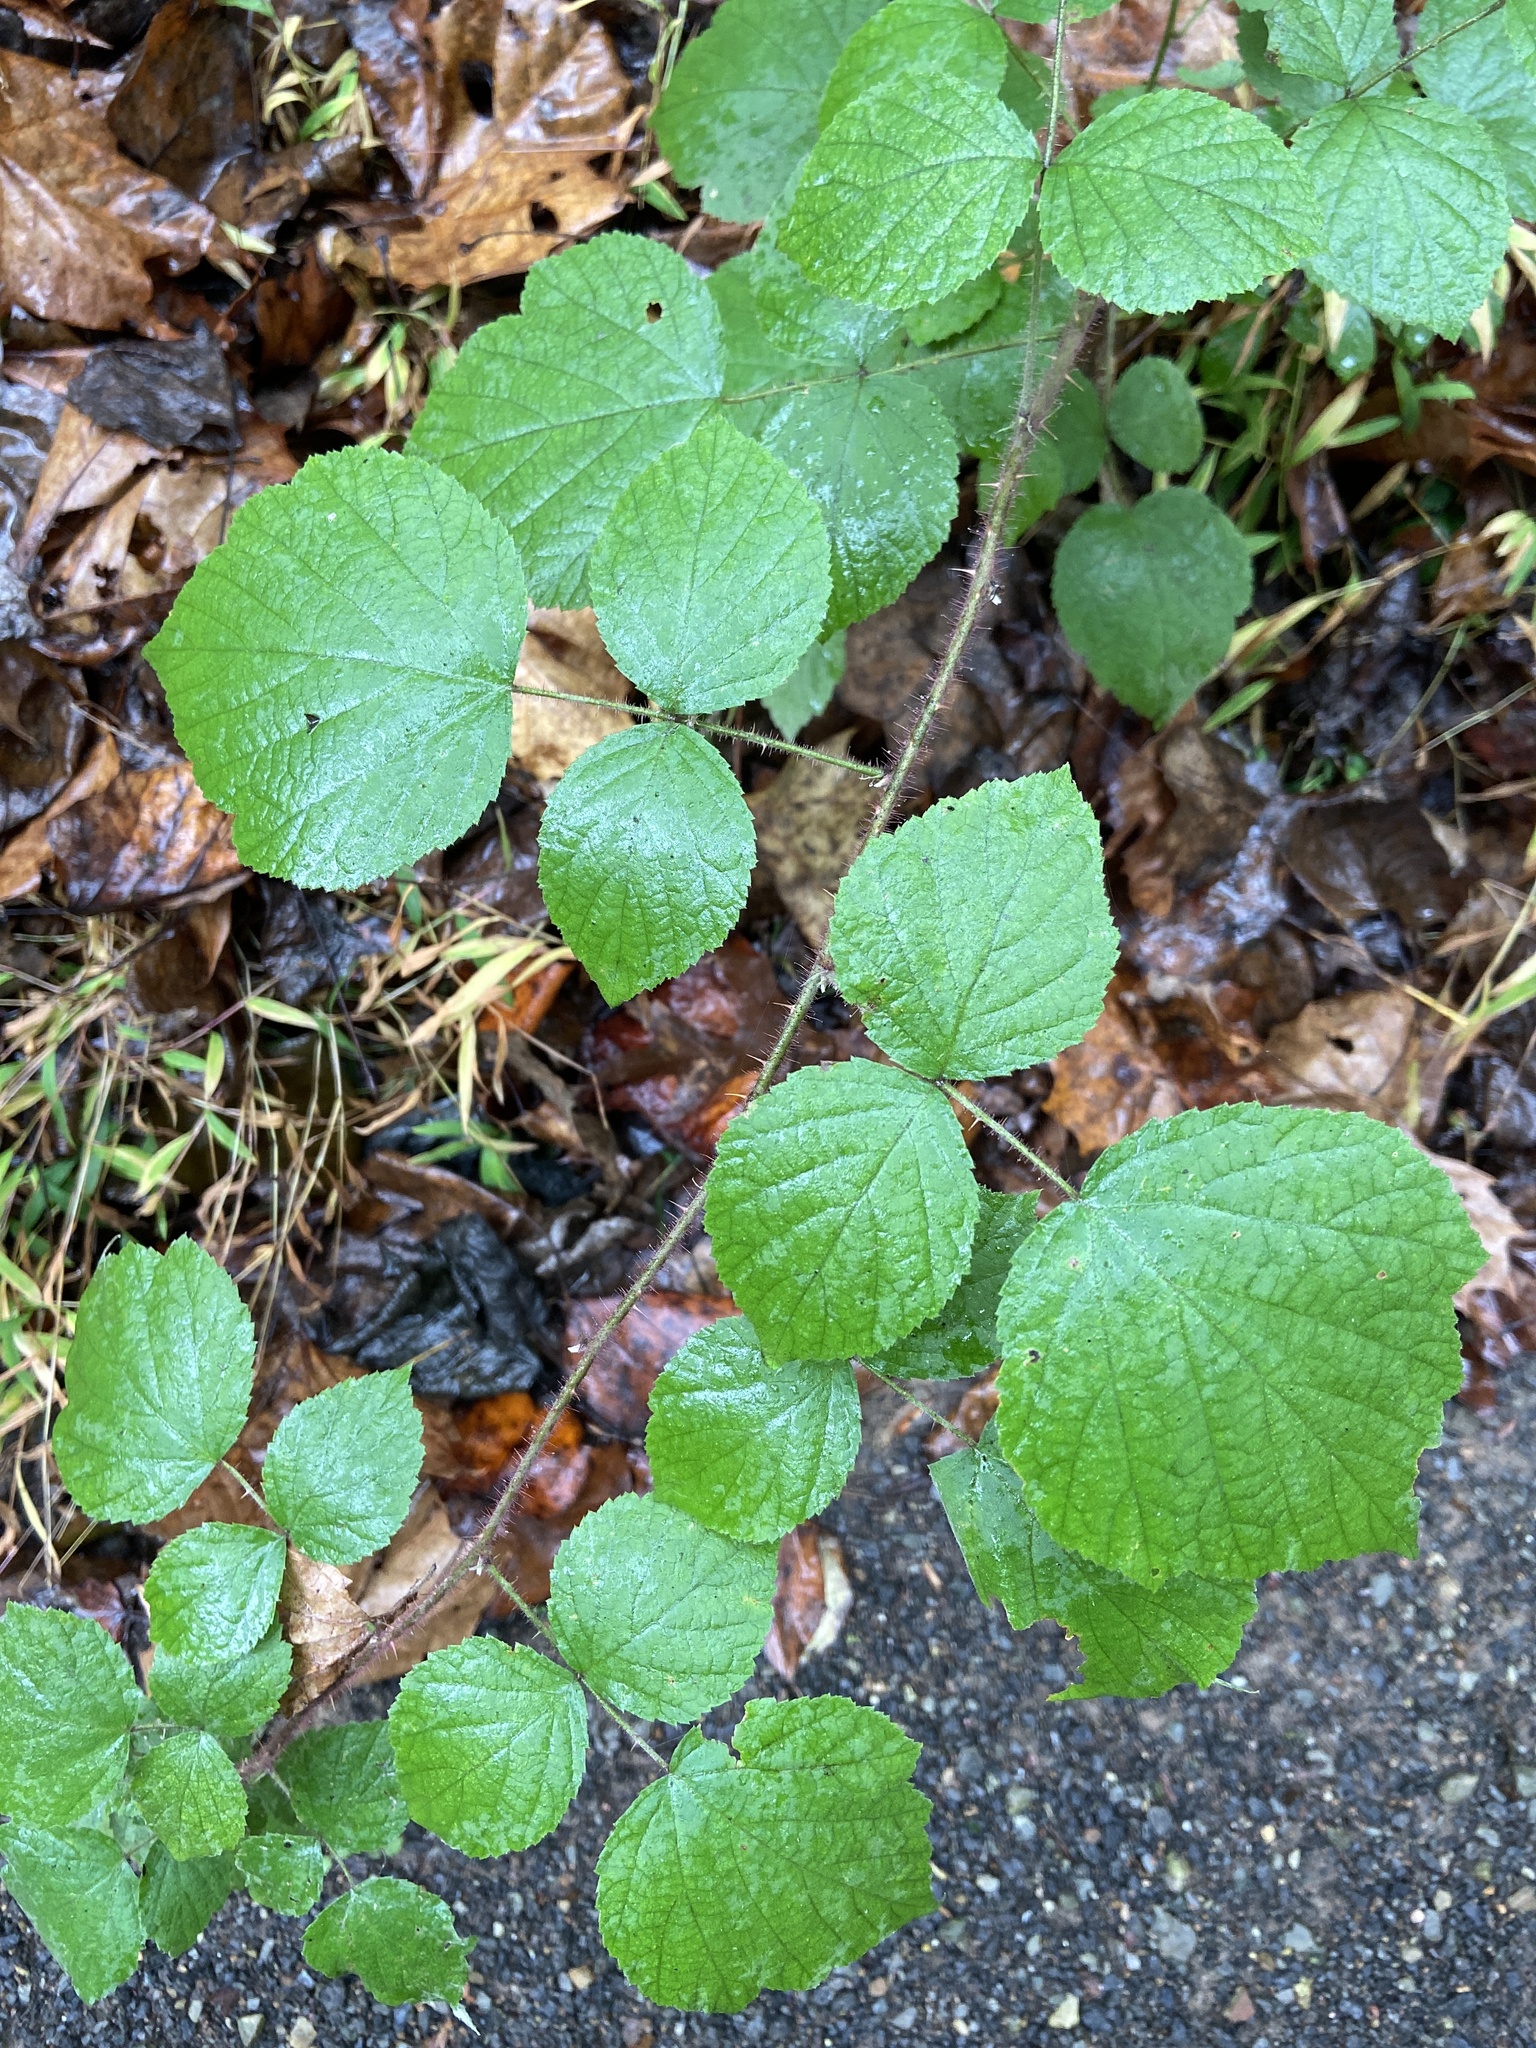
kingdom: Plantae
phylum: Tracheophyta
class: Magnoliopsida
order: Rosales
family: Rosaceae
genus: Rubus
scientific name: Rubus phoenicolasius
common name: Japanese wineberry
